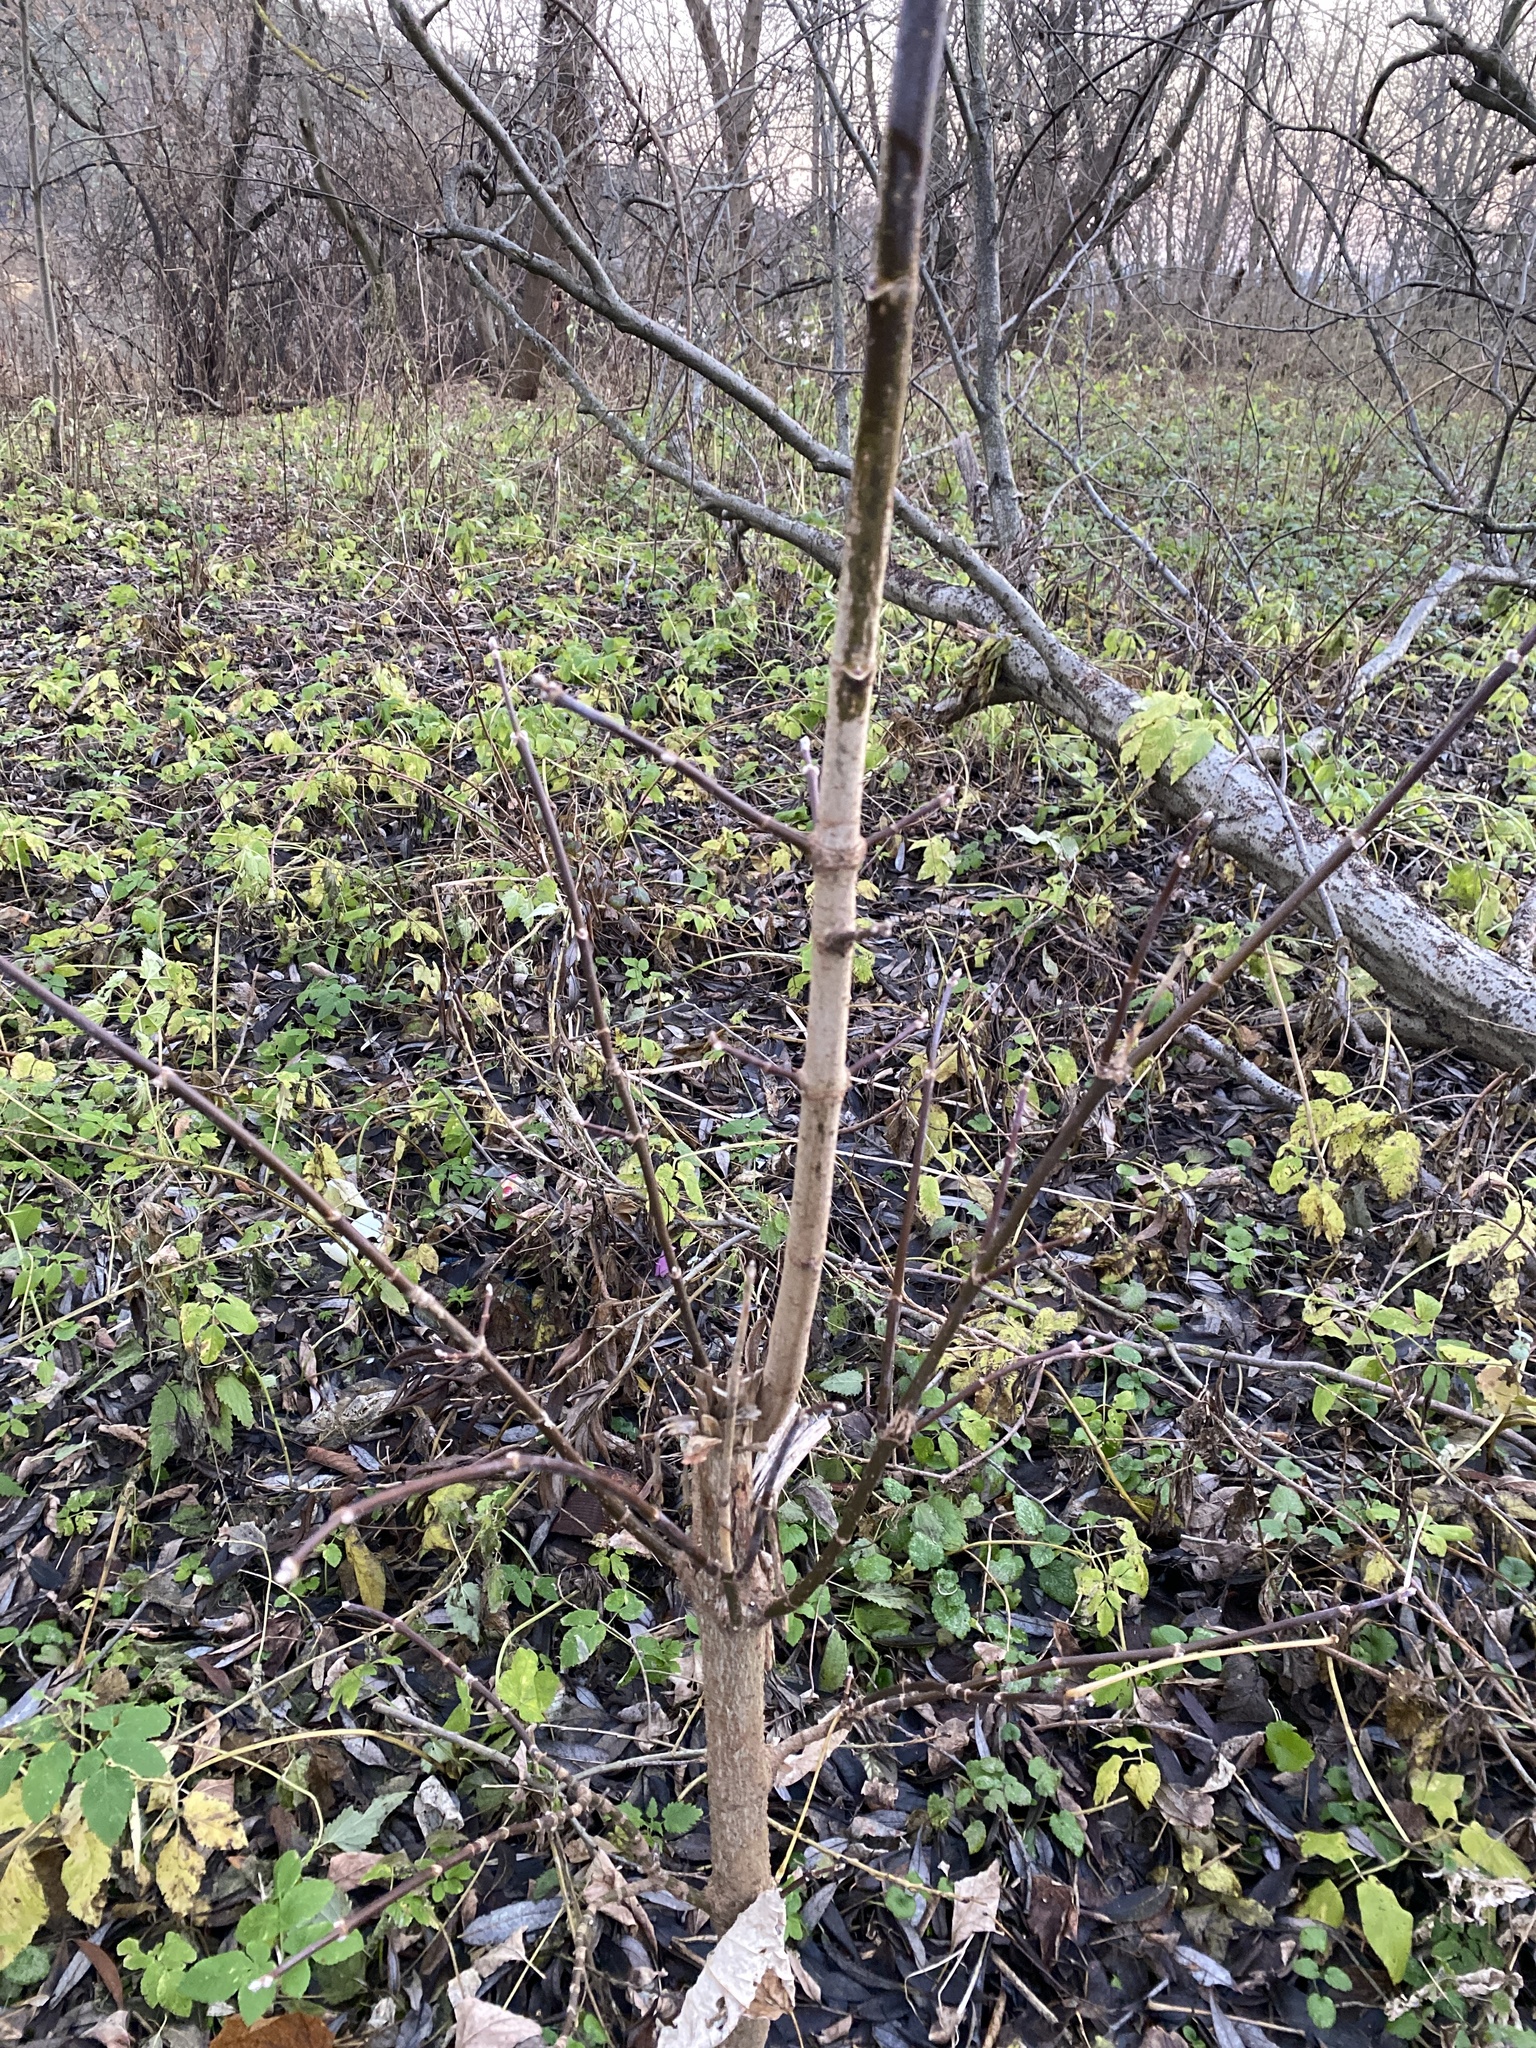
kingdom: Plantae
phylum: Tracheophyta
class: Magnoliopsida
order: Sapindales
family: Sapindaceae
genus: Acer
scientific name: Acer negundo
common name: Ashleaf maple
